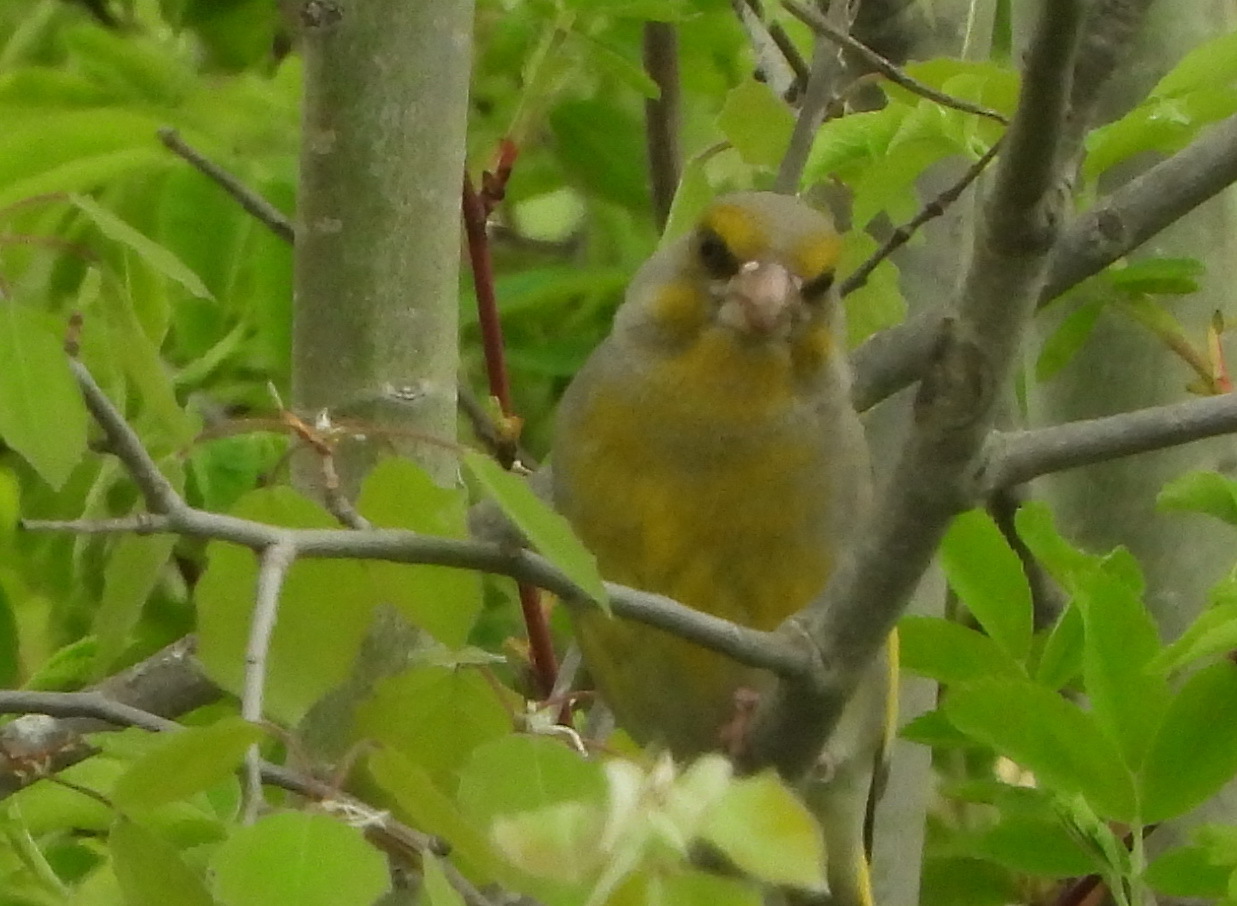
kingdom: Plantae
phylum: Tracheophyta
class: Liliopsida
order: Poales
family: Poaceae
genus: Chloris
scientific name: Chloris chloris
